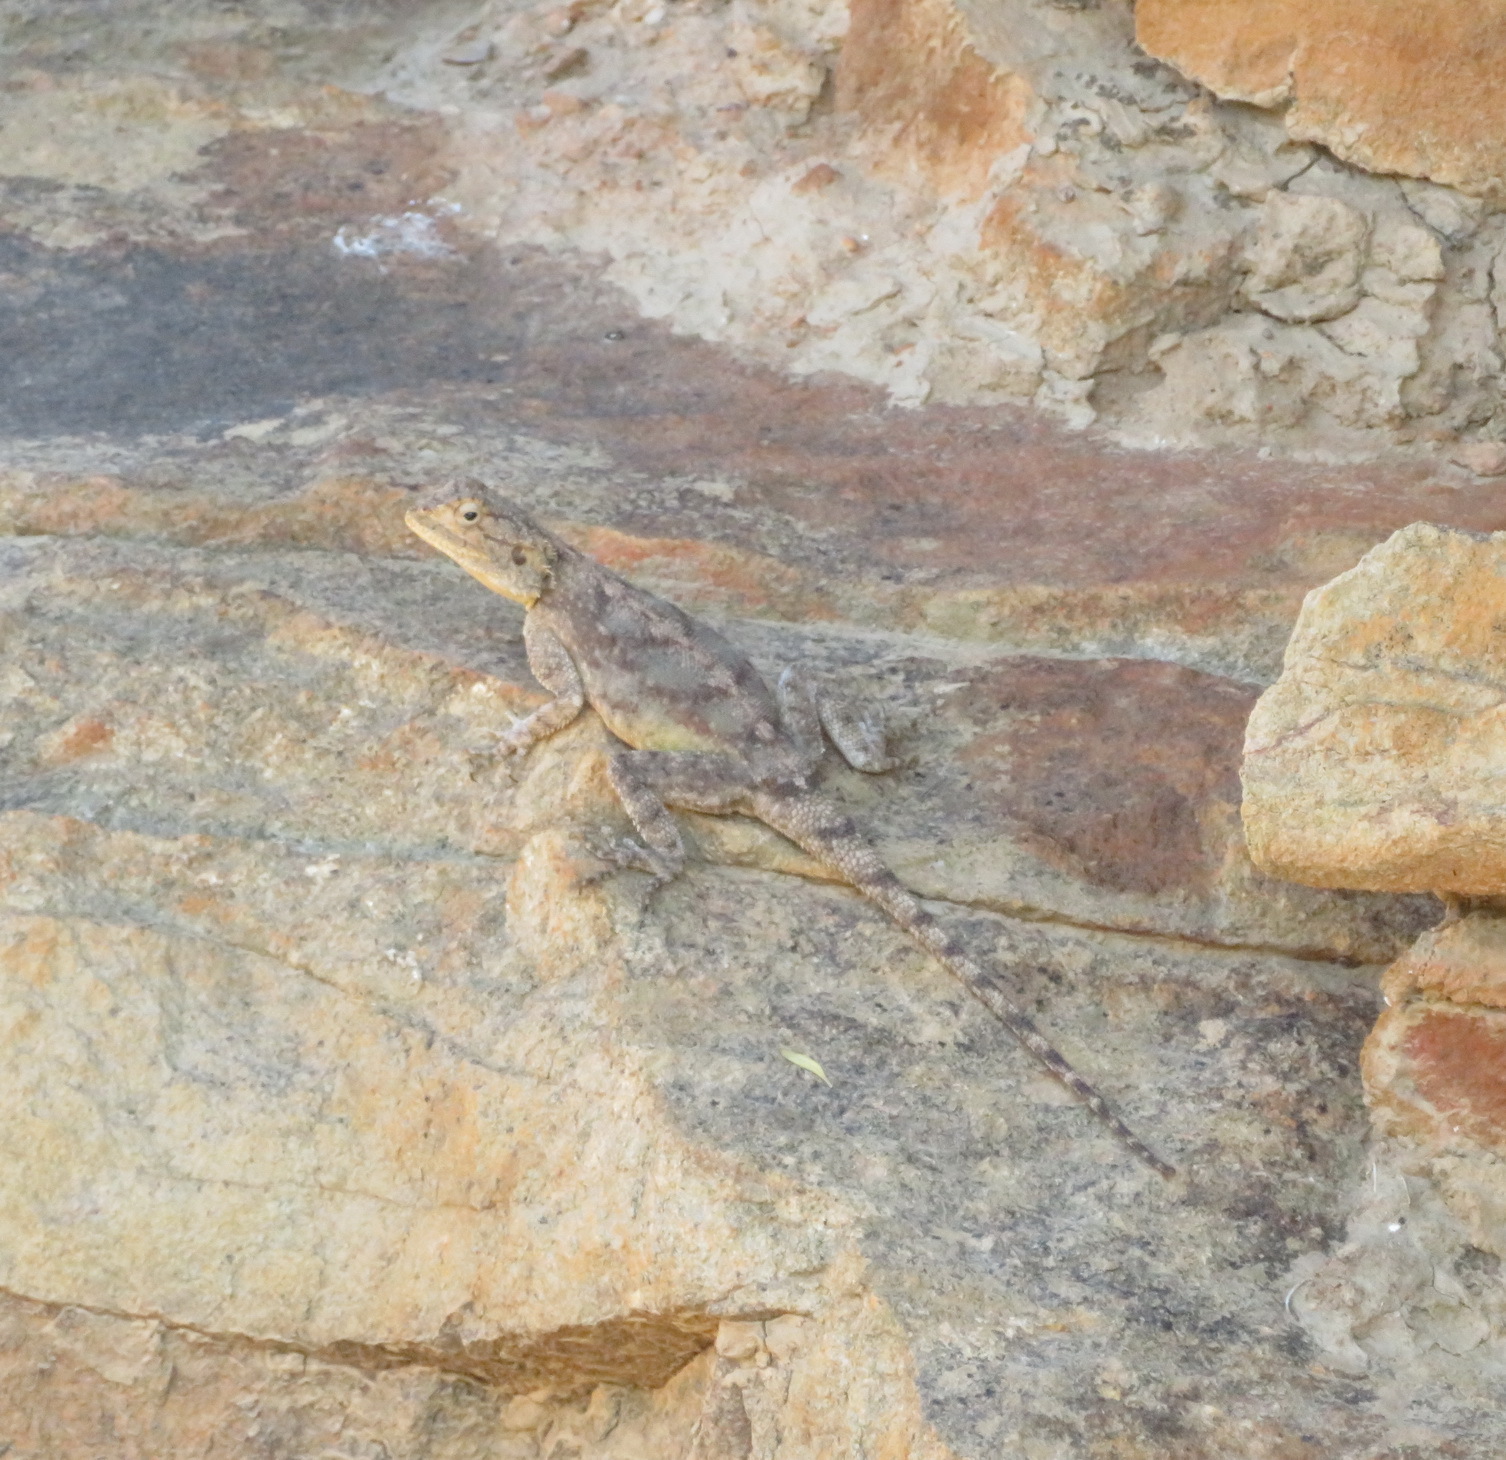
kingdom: Animalia
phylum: Chordata
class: Squamata
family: Agamidae
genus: Agama
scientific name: Agama atra
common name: Southern african rock agama
